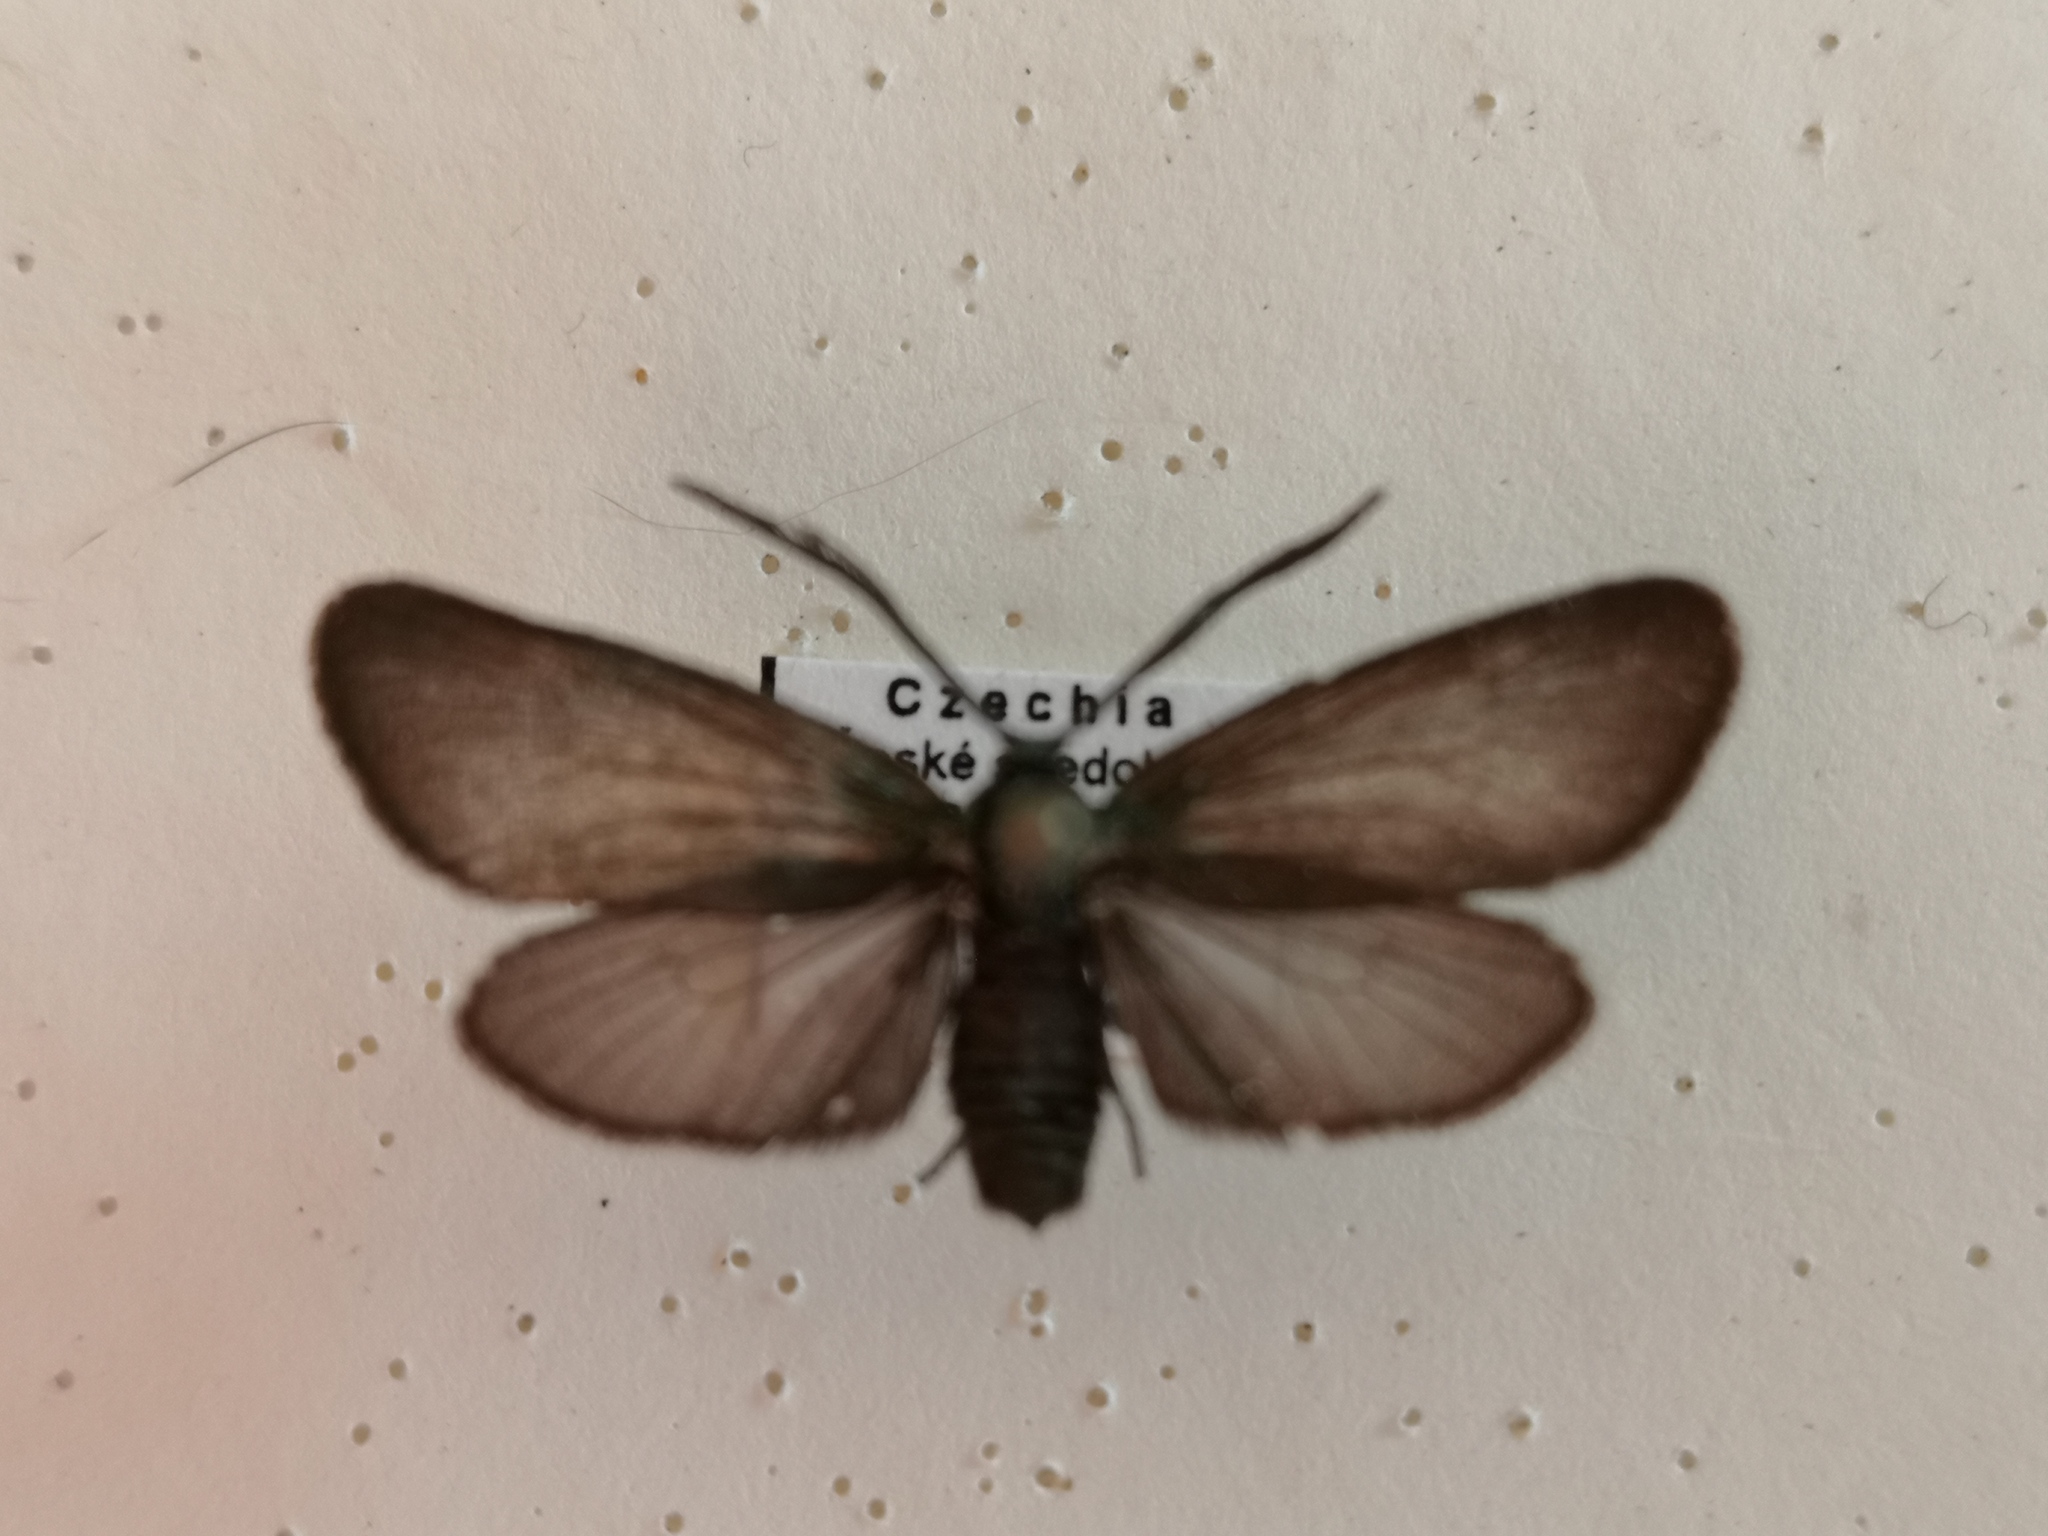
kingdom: Animalia
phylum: Arthropoda
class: Insecta
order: Lepidoptera
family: Zygaenidae
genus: Rhagades
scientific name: Rhagades pruni
